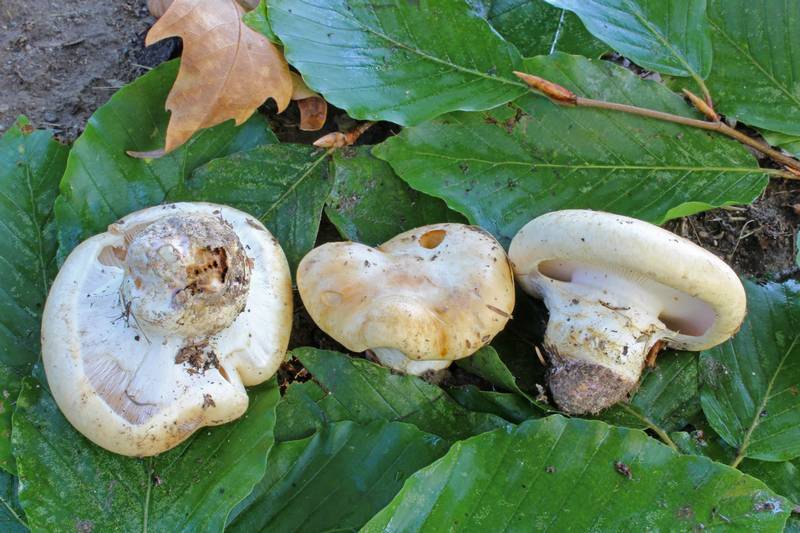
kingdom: Fungi
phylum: Basidiomycota
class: Agaricomycetes
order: Agaricales
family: Cortinariaceae
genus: Thaxterogaster
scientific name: Thaxterogaster variegatus
